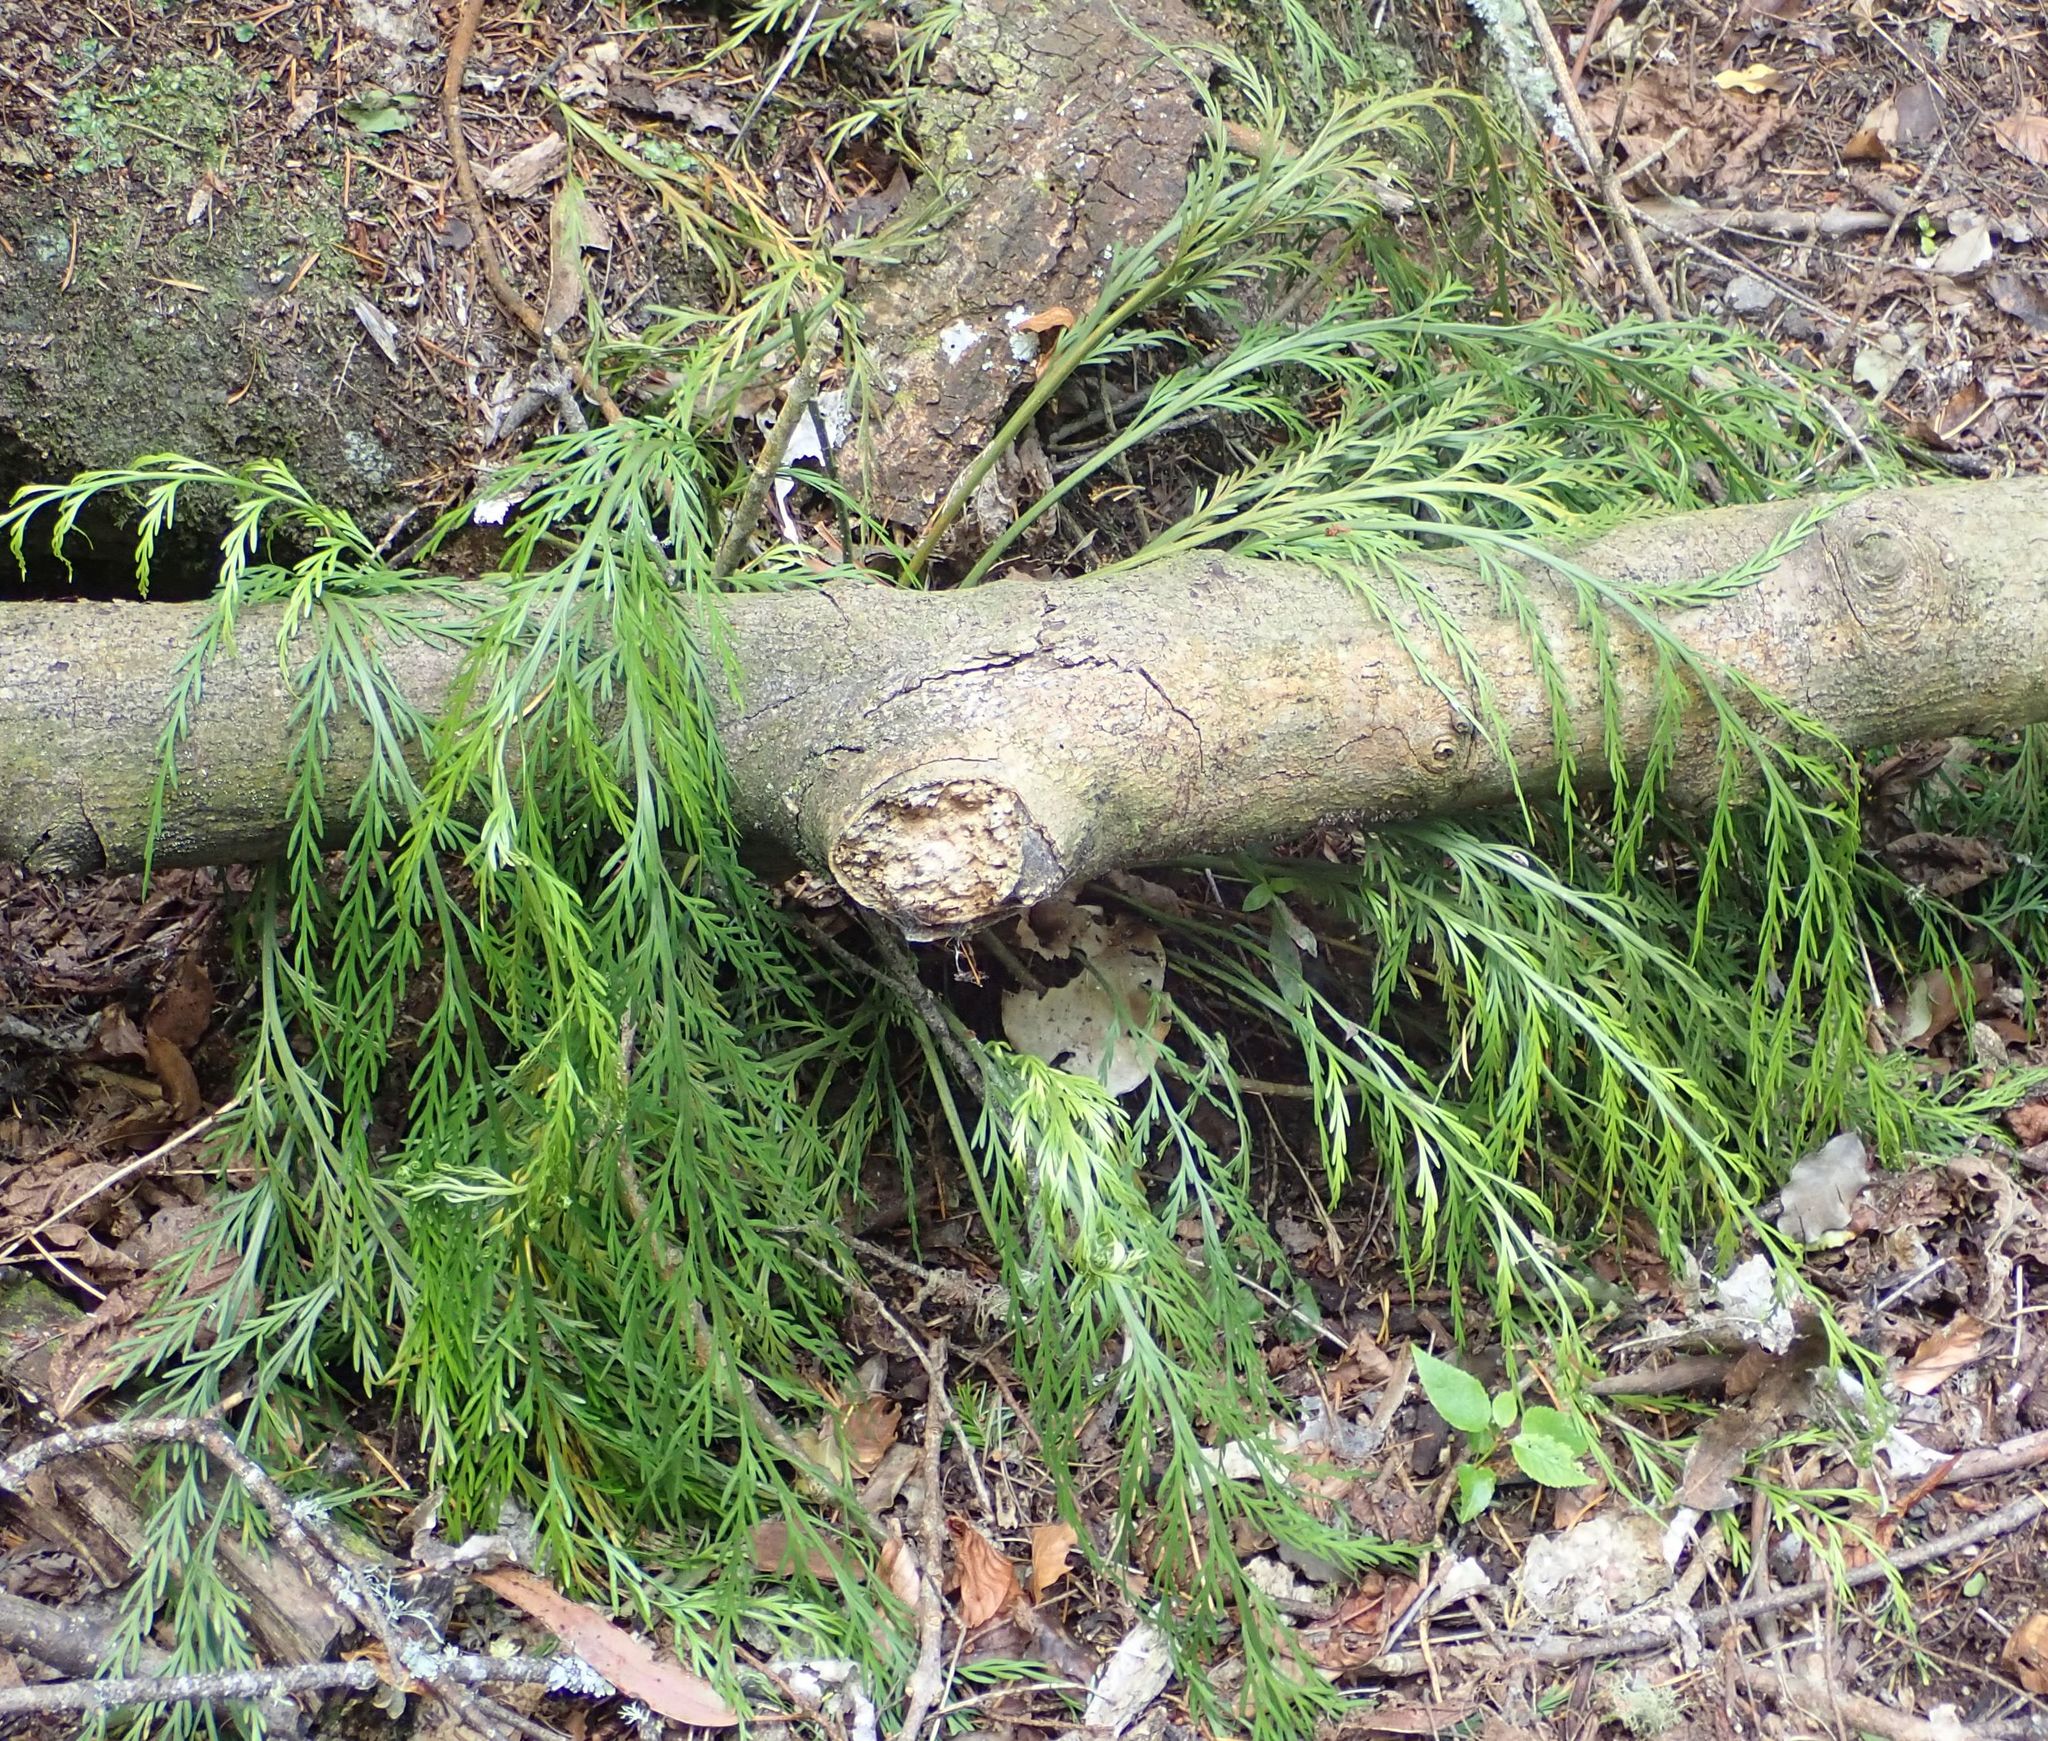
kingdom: Plantae
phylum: Tracheophyta
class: Polypodiopsida
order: Polypodiales
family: Aspleniaceae
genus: Asplenium
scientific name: Asplenium flaccidum
